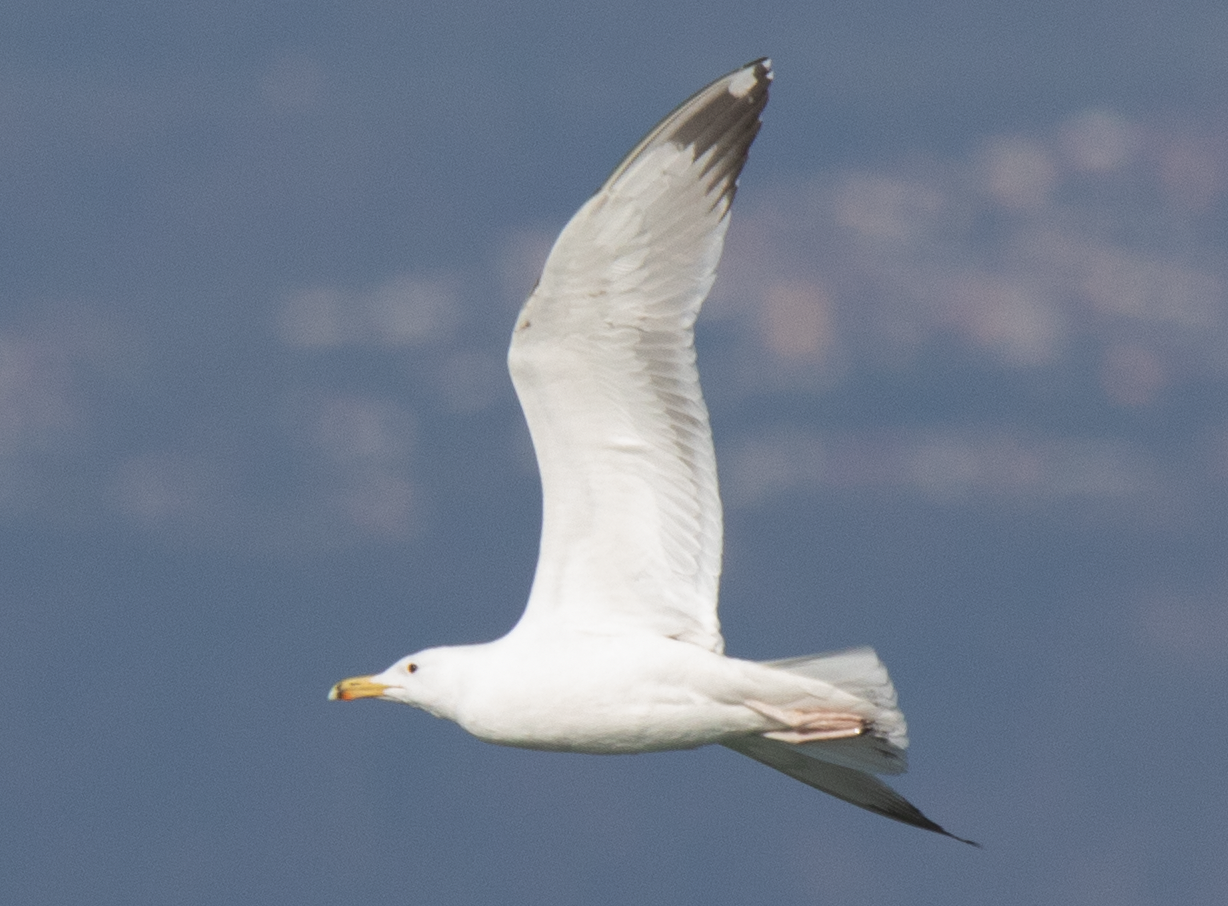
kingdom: Animalia
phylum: Chordata
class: Aves
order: Charadriiformes
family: Laridae
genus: Larus
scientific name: Larus cachinnans
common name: Caspian gull
